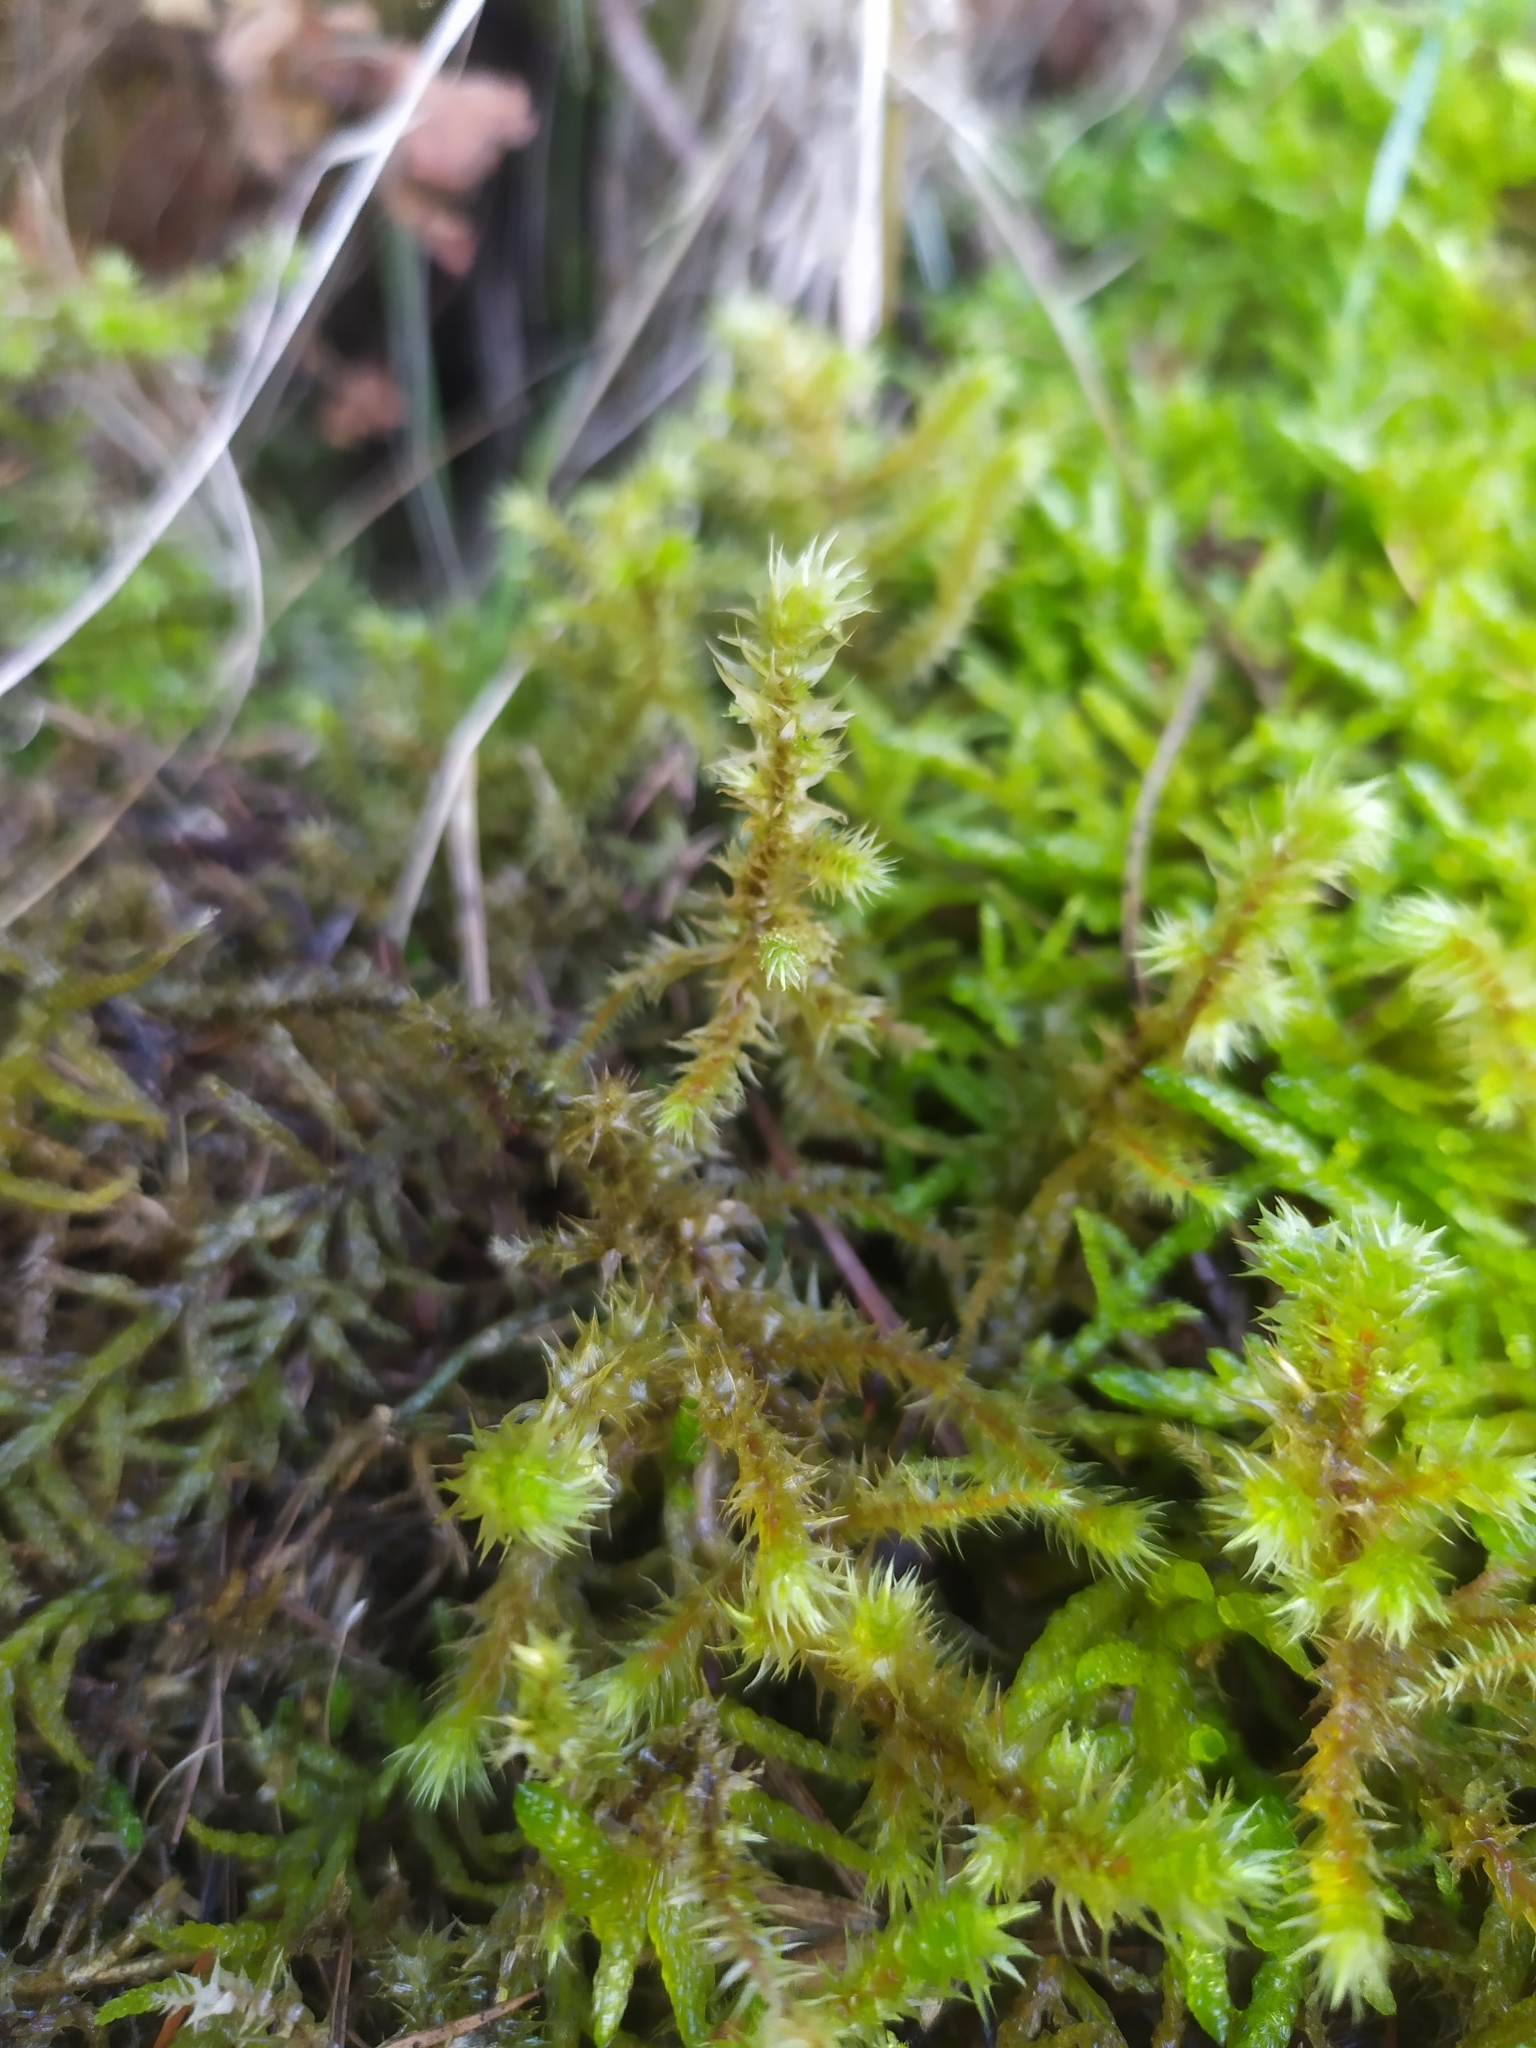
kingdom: Plantae
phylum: Bryophyta
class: Bryopsida
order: Hypnales
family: Hylocomiaceae
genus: Hylocomiadelphus
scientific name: Hylocomiadelphus triquetrus
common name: Rough goose neck moss
